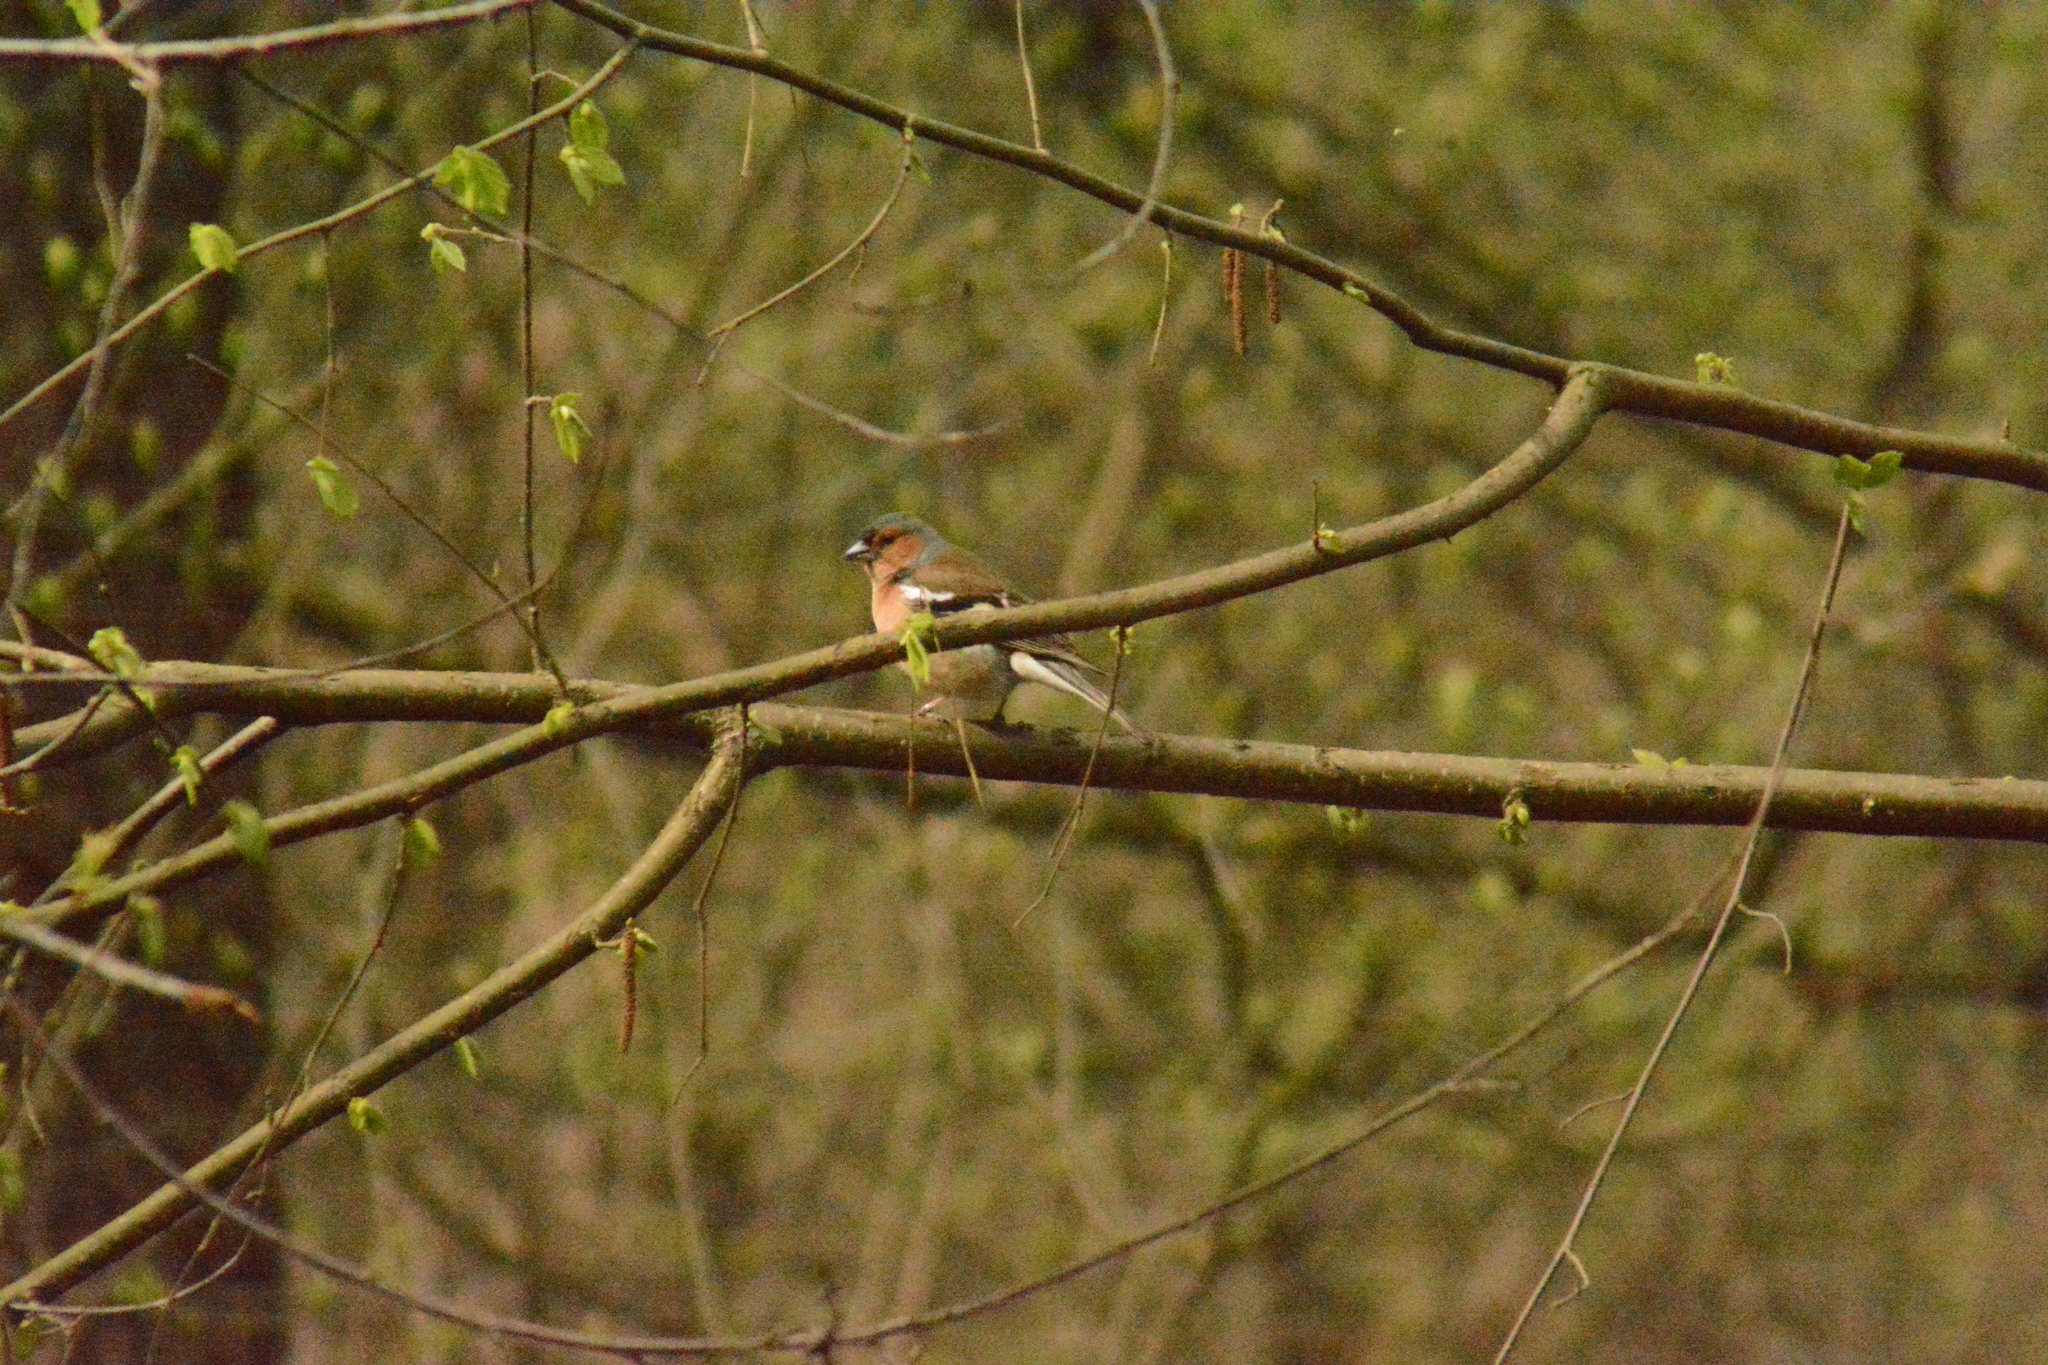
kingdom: Animalia
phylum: Chordata
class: Aves
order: Passeriformes
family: Fringillidae
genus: Fringilla
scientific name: Fringilla coelebs
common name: Common chaffinch
